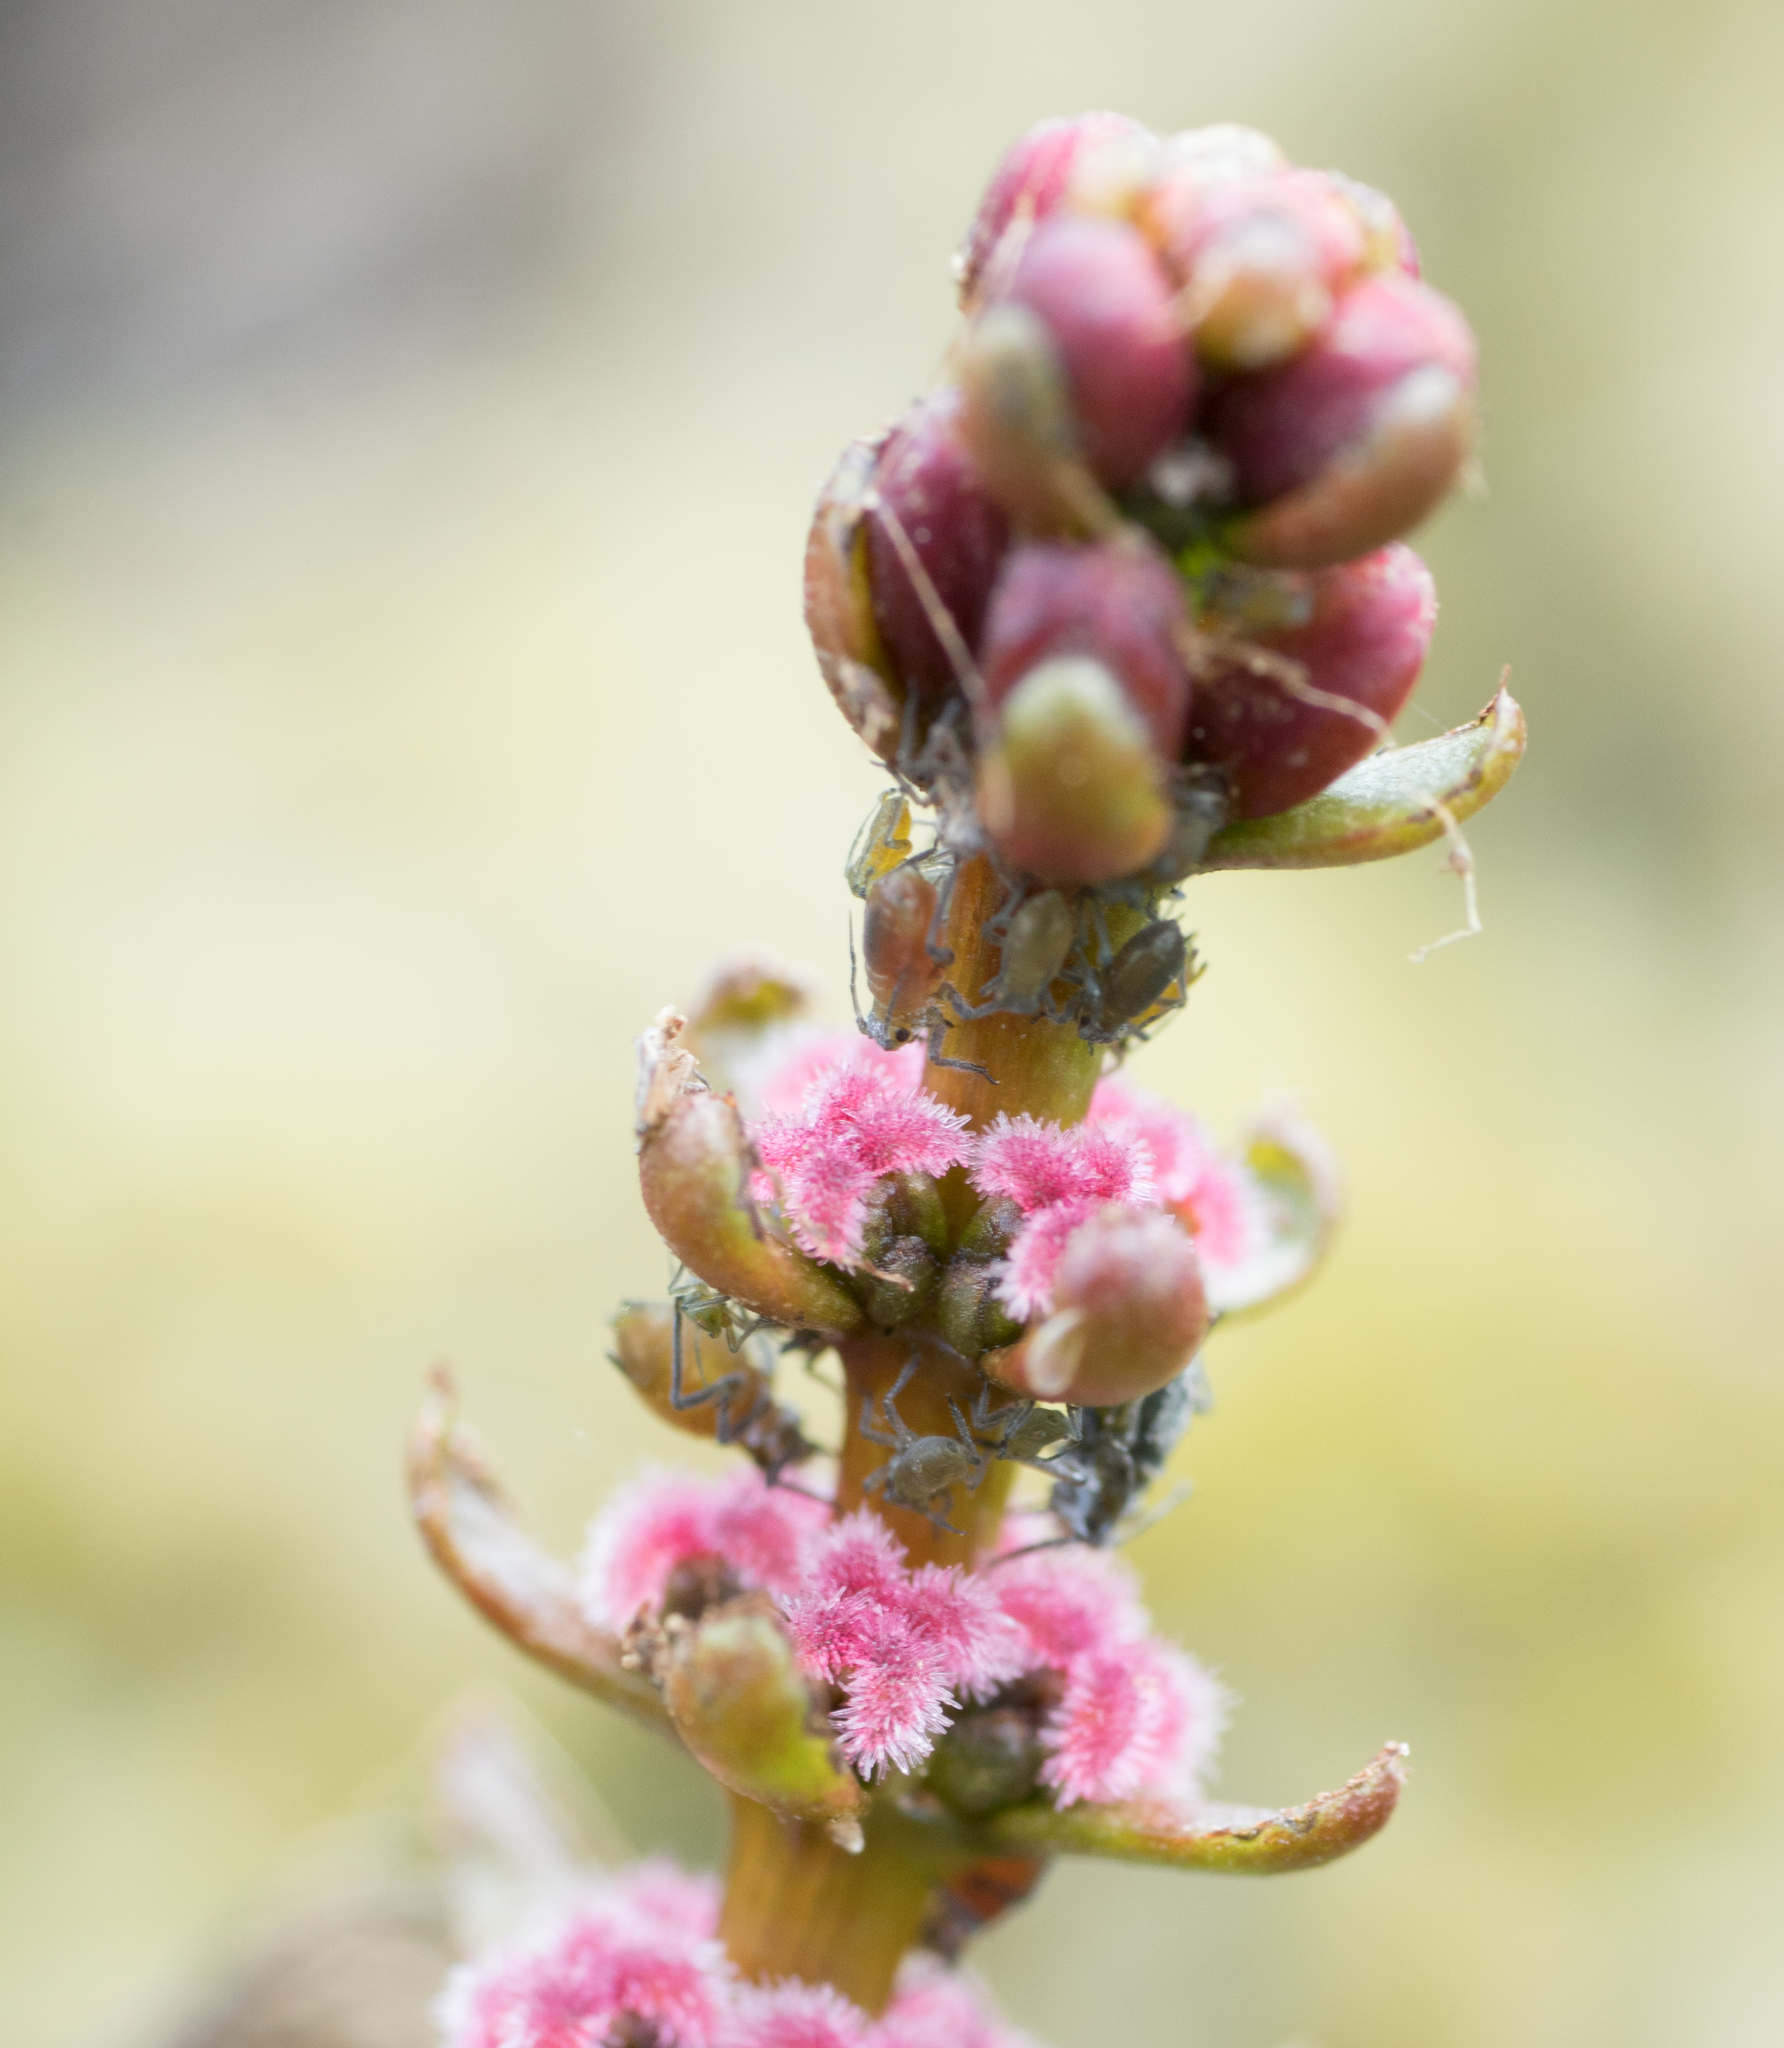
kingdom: Plantae
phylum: Tracheophyta
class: Magnoliopsida
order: Saxifragales
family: Haloragaceae
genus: Myriophyllum
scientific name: Myriophyllum sibiricum
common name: Siberian water-milfoil
